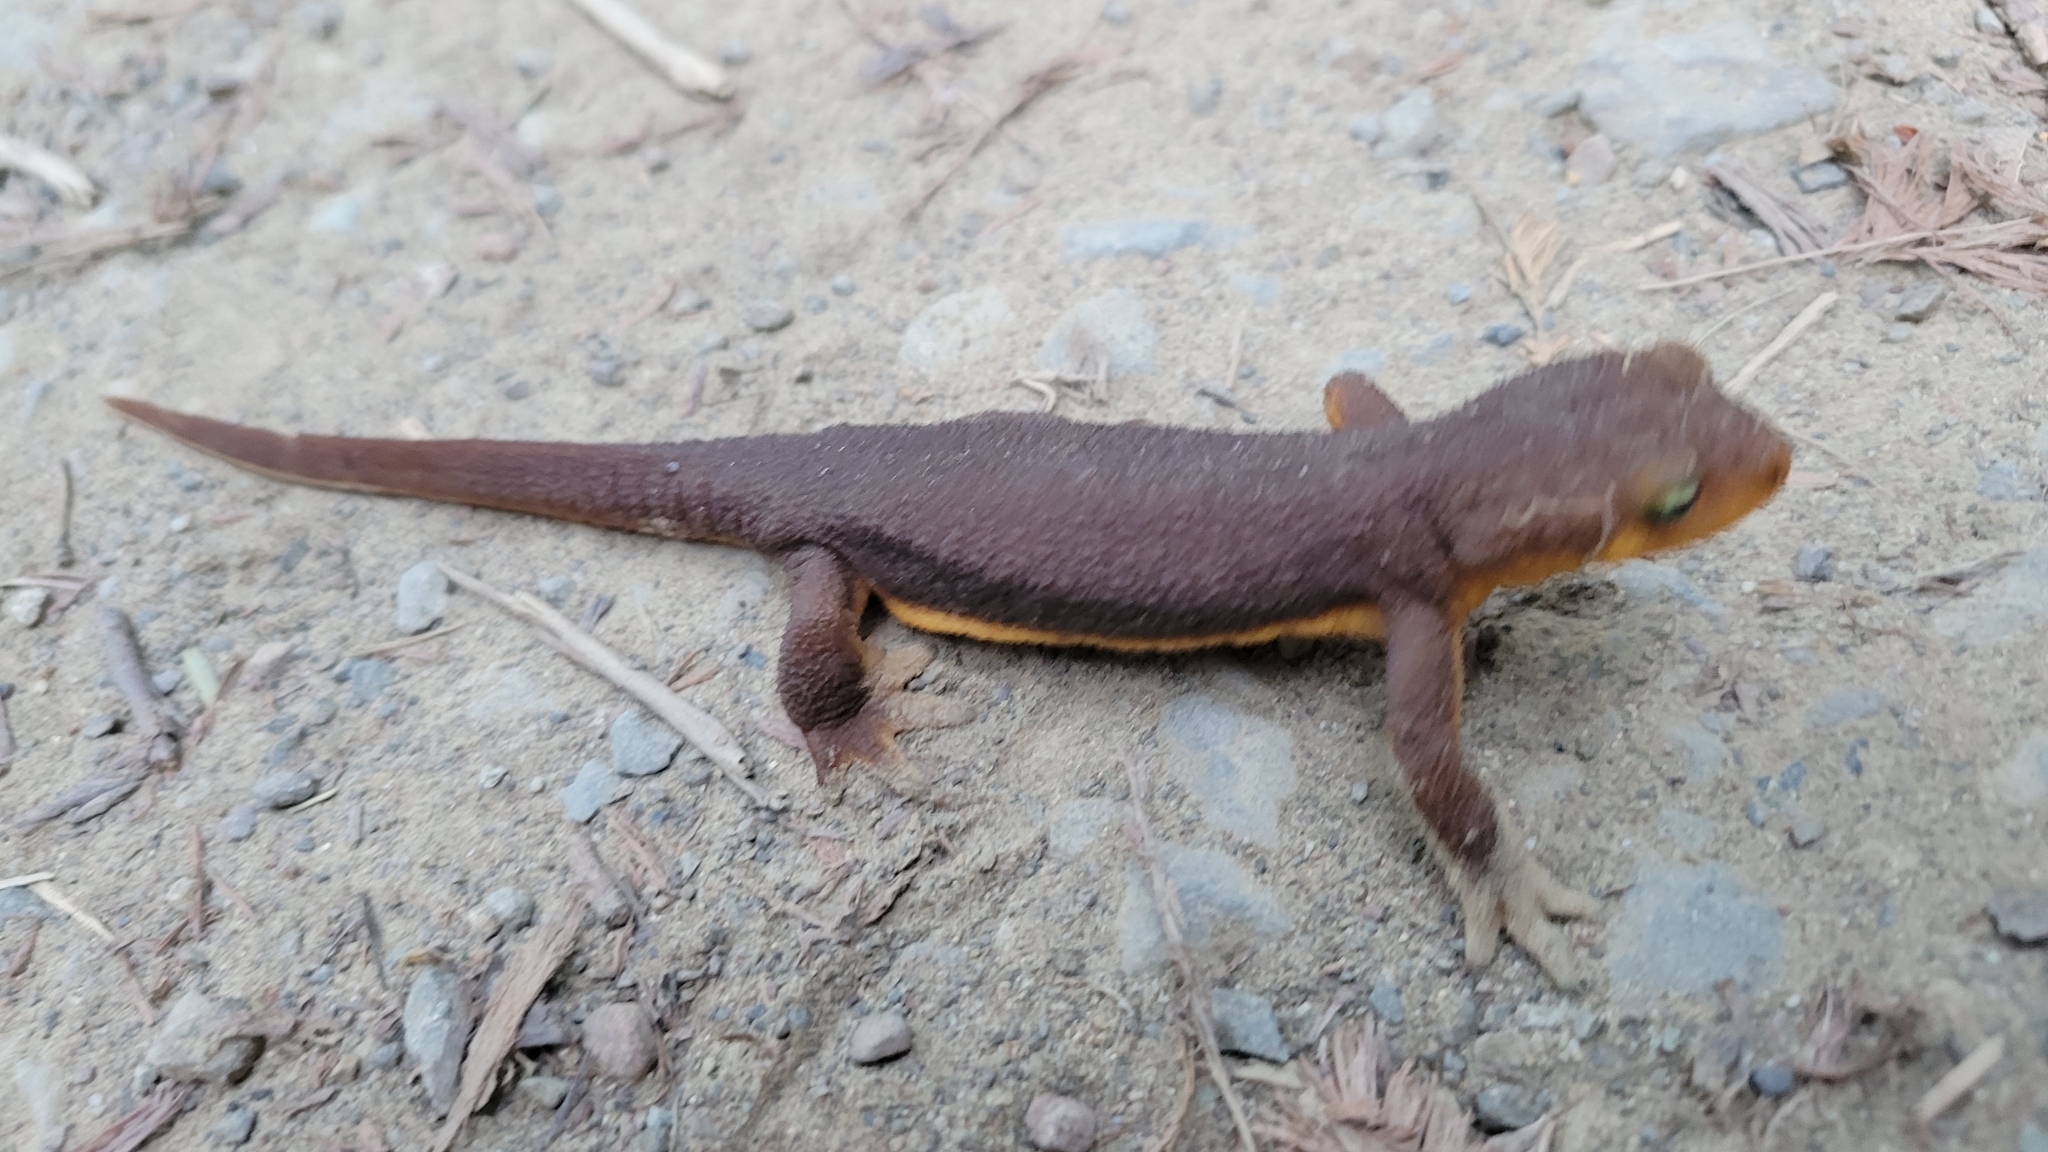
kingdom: Animalia
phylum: Chordata
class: Amphibia
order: Caudata
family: Salamandridae
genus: Taricha
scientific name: Taricha torosa
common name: California newt
